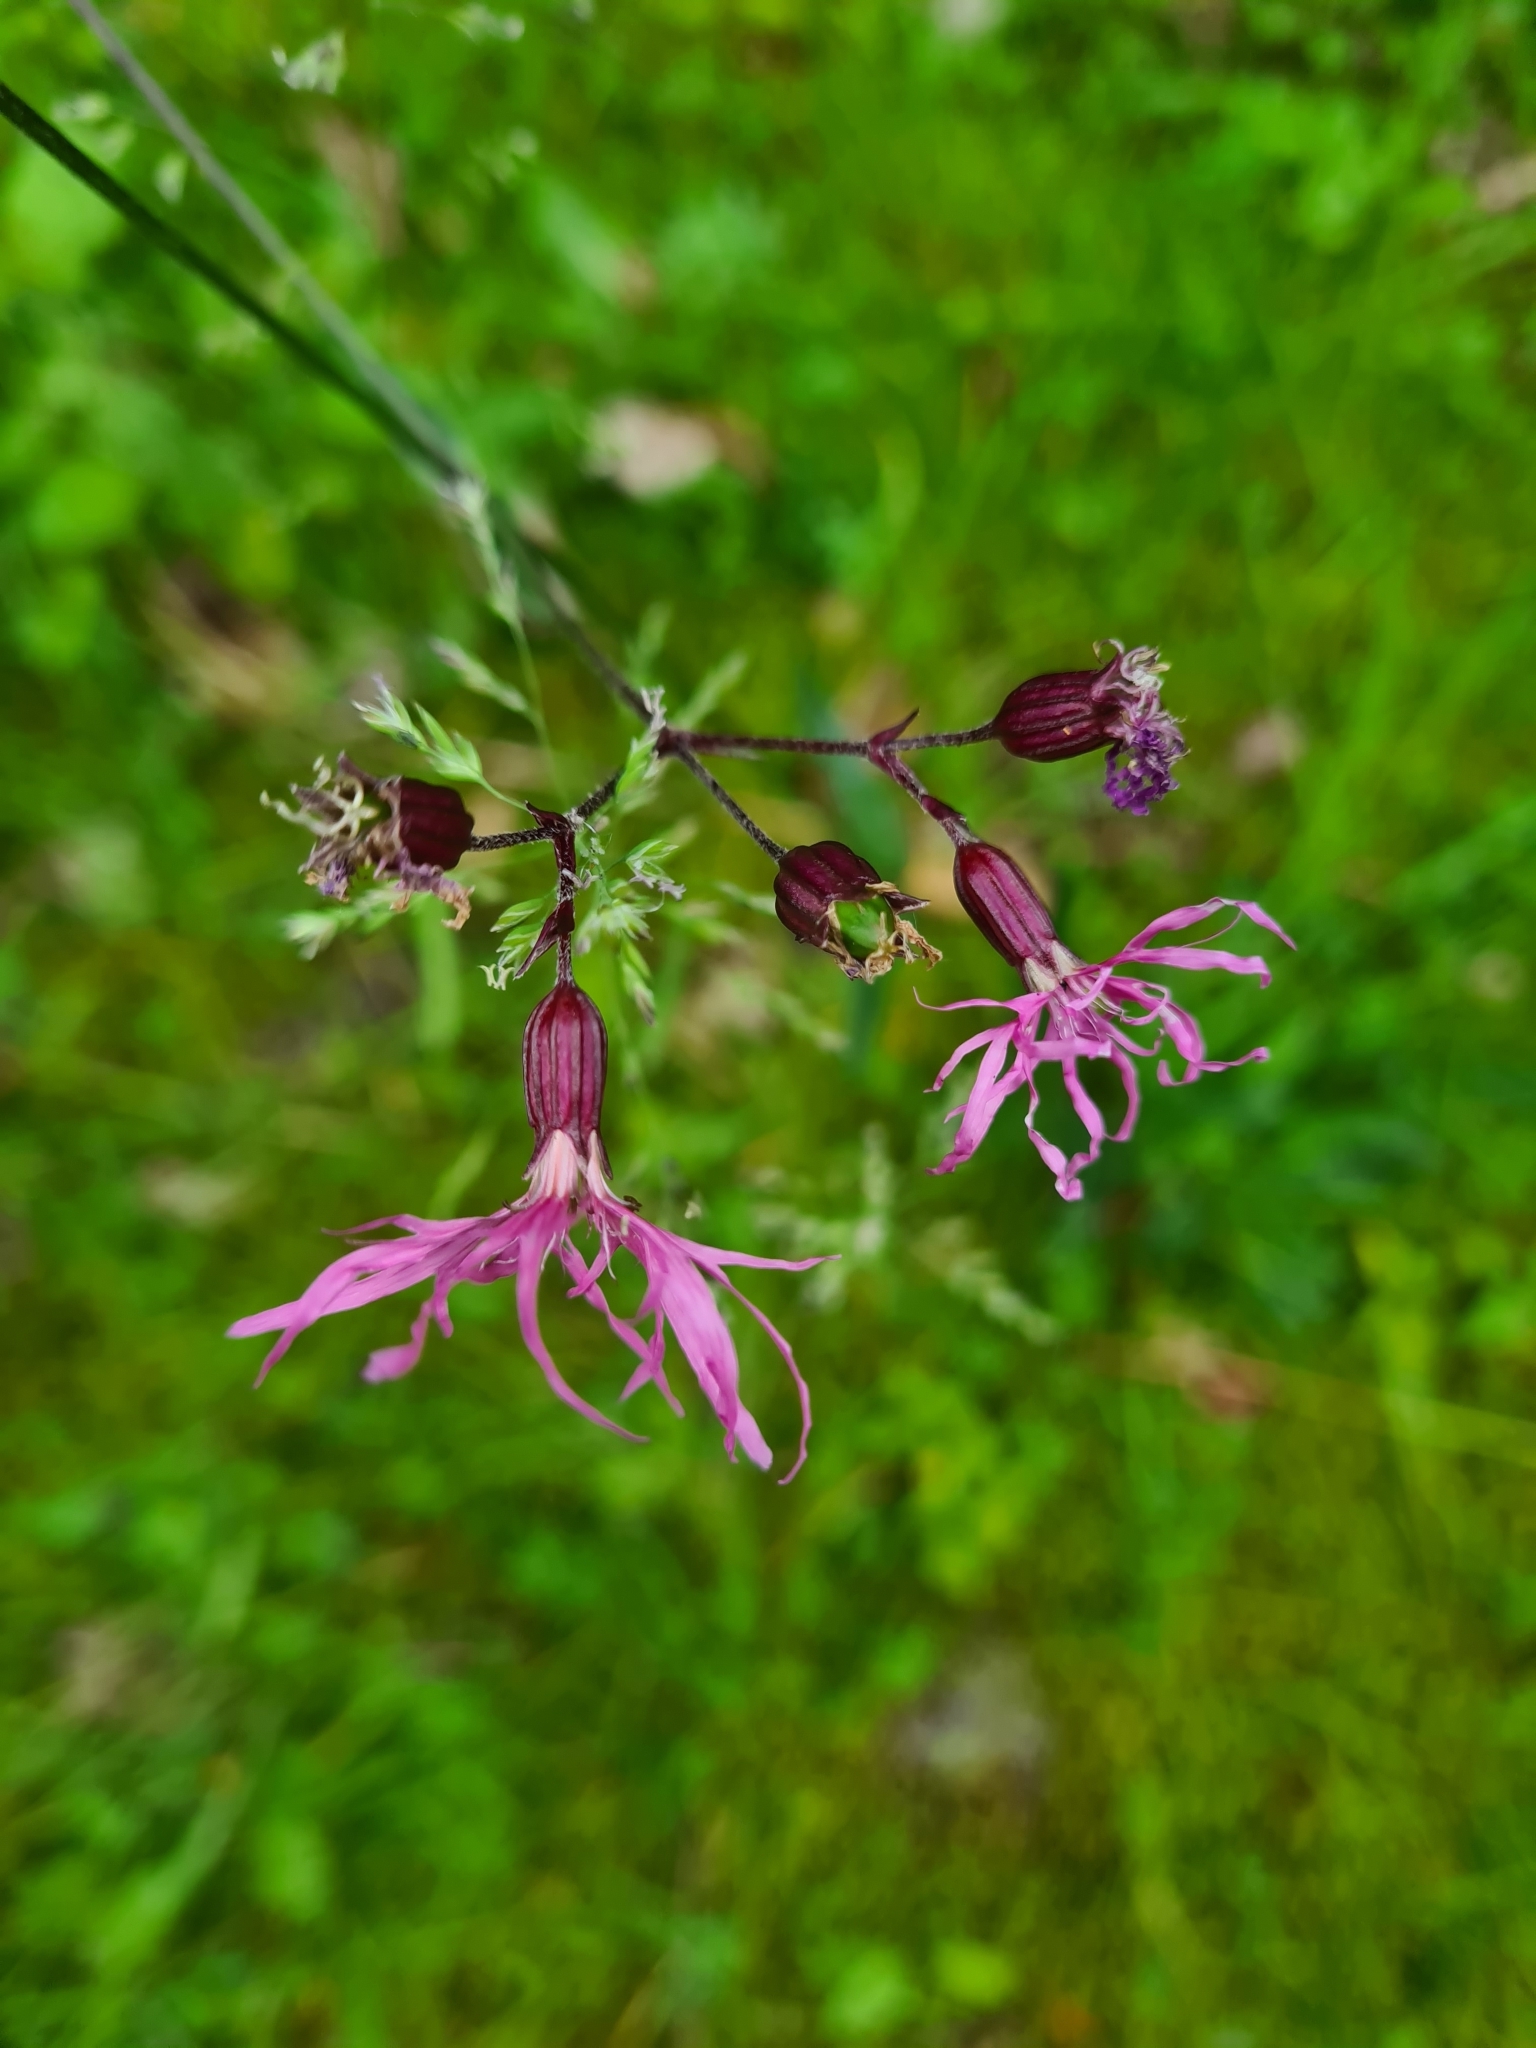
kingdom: Plantae
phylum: Tracheophyta
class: Magnoliopsida
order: Caryophyllales
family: Caryophyllaceae
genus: Silene
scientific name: Silene flos-cuculi
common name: Ragged-robin
